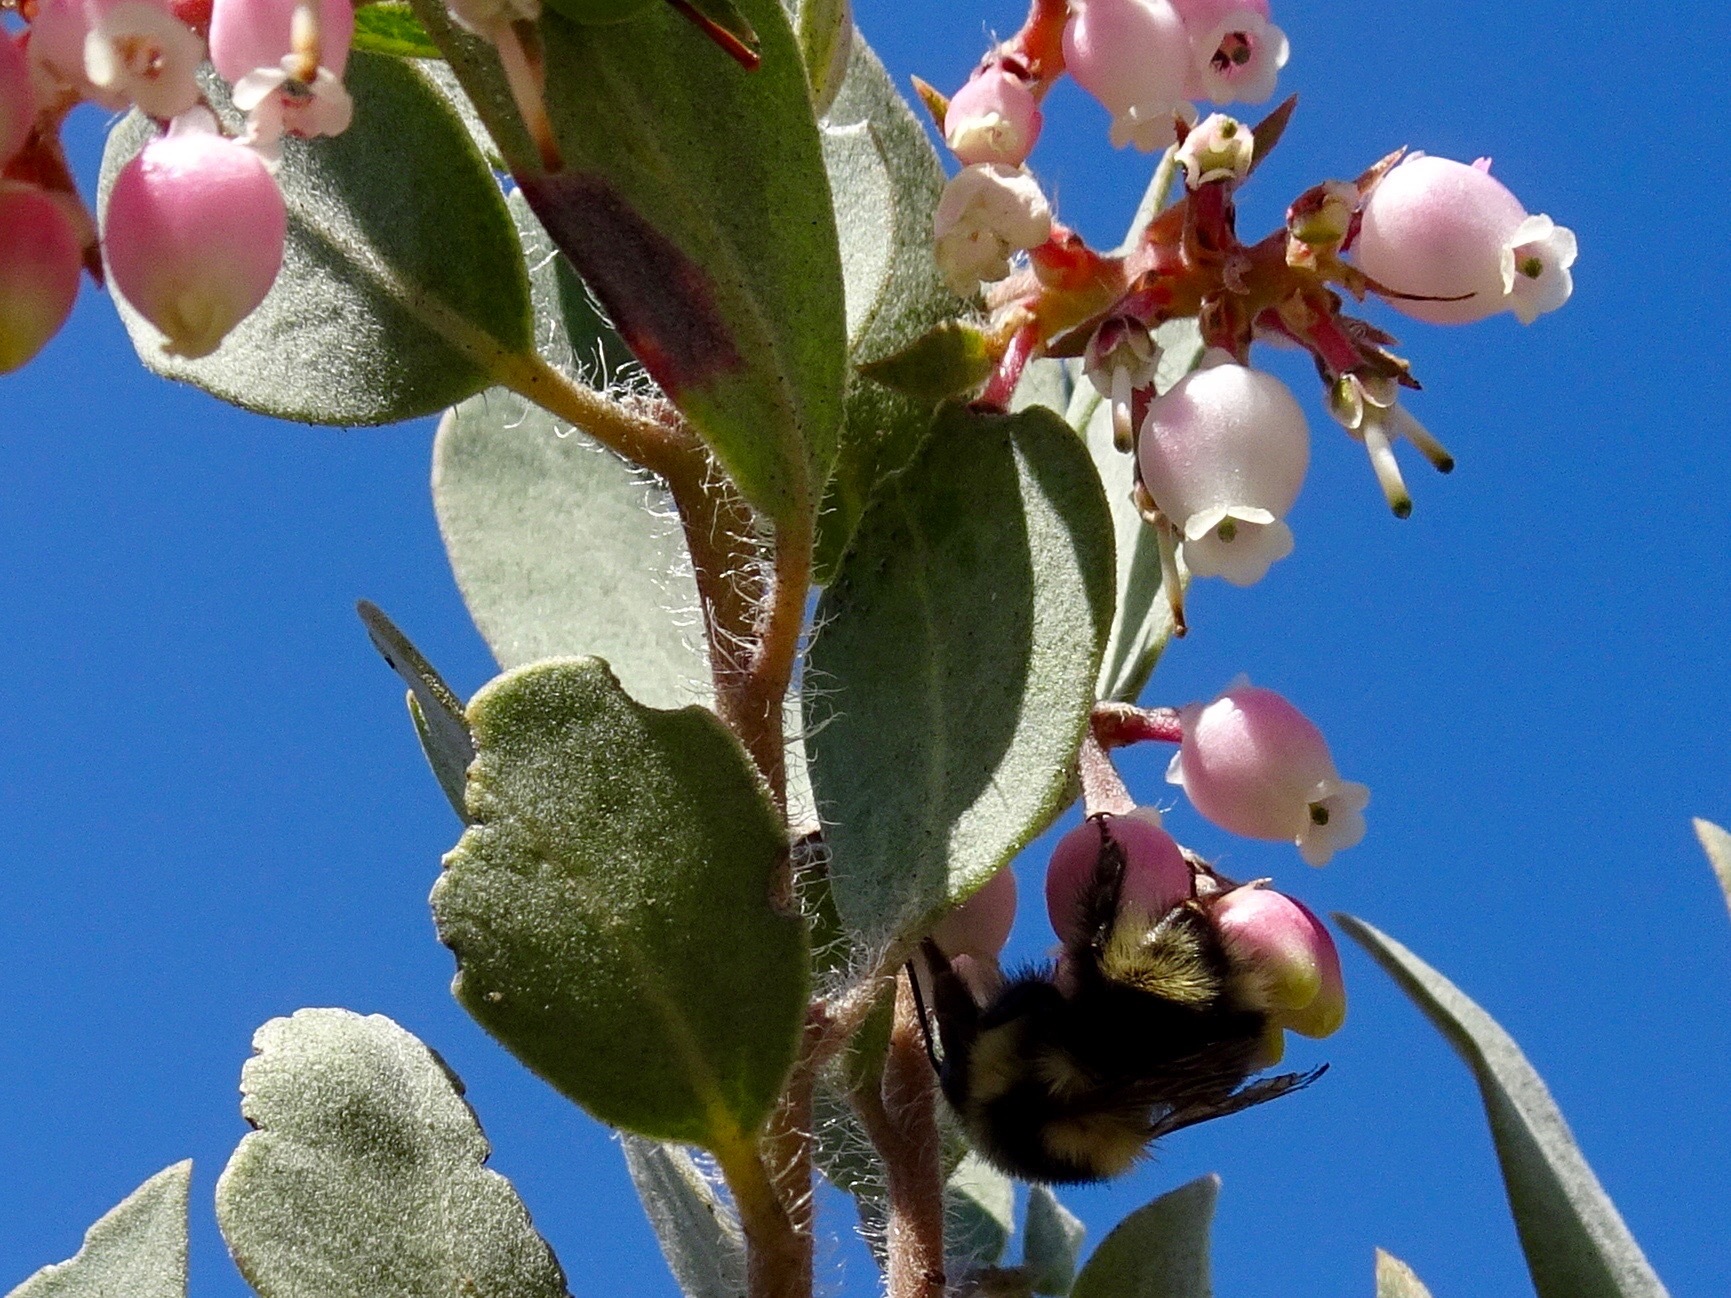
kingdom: Animalia
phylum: Arthropoda
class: Insecta
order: Hymenoptera
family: Apidae
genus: Bombus
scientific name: Bombus melanopygus
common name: Black tail bumble bee
